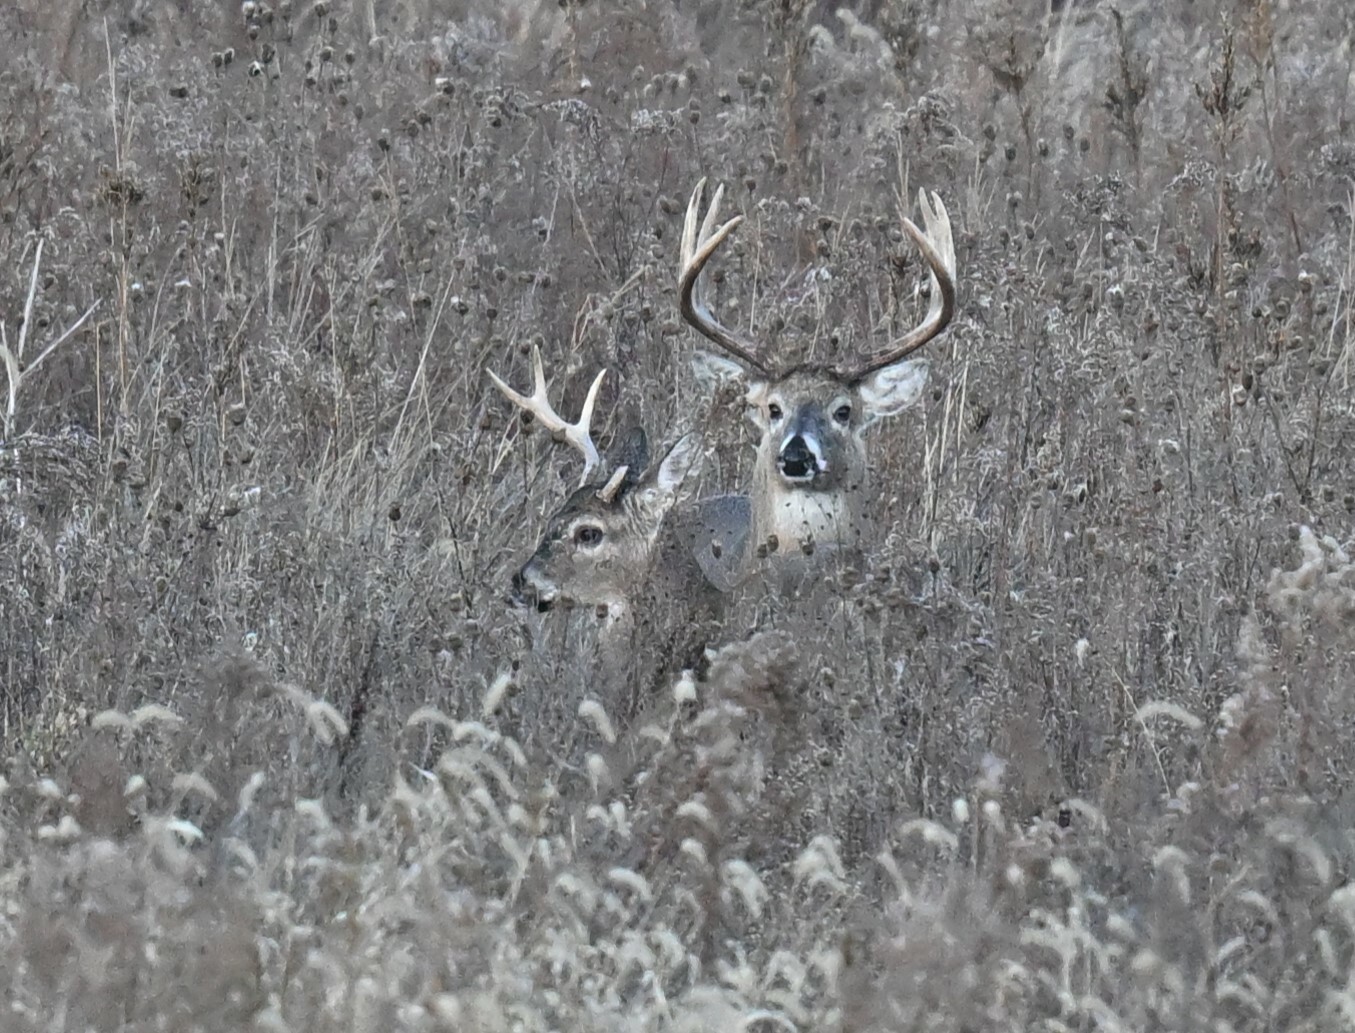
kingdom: Animalia
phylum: Chordata
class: Mammalia
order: Artiodactyla
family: Cervidae
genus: Odocoileus
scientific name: Odocoileus virginianus
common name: White-tailed deer
